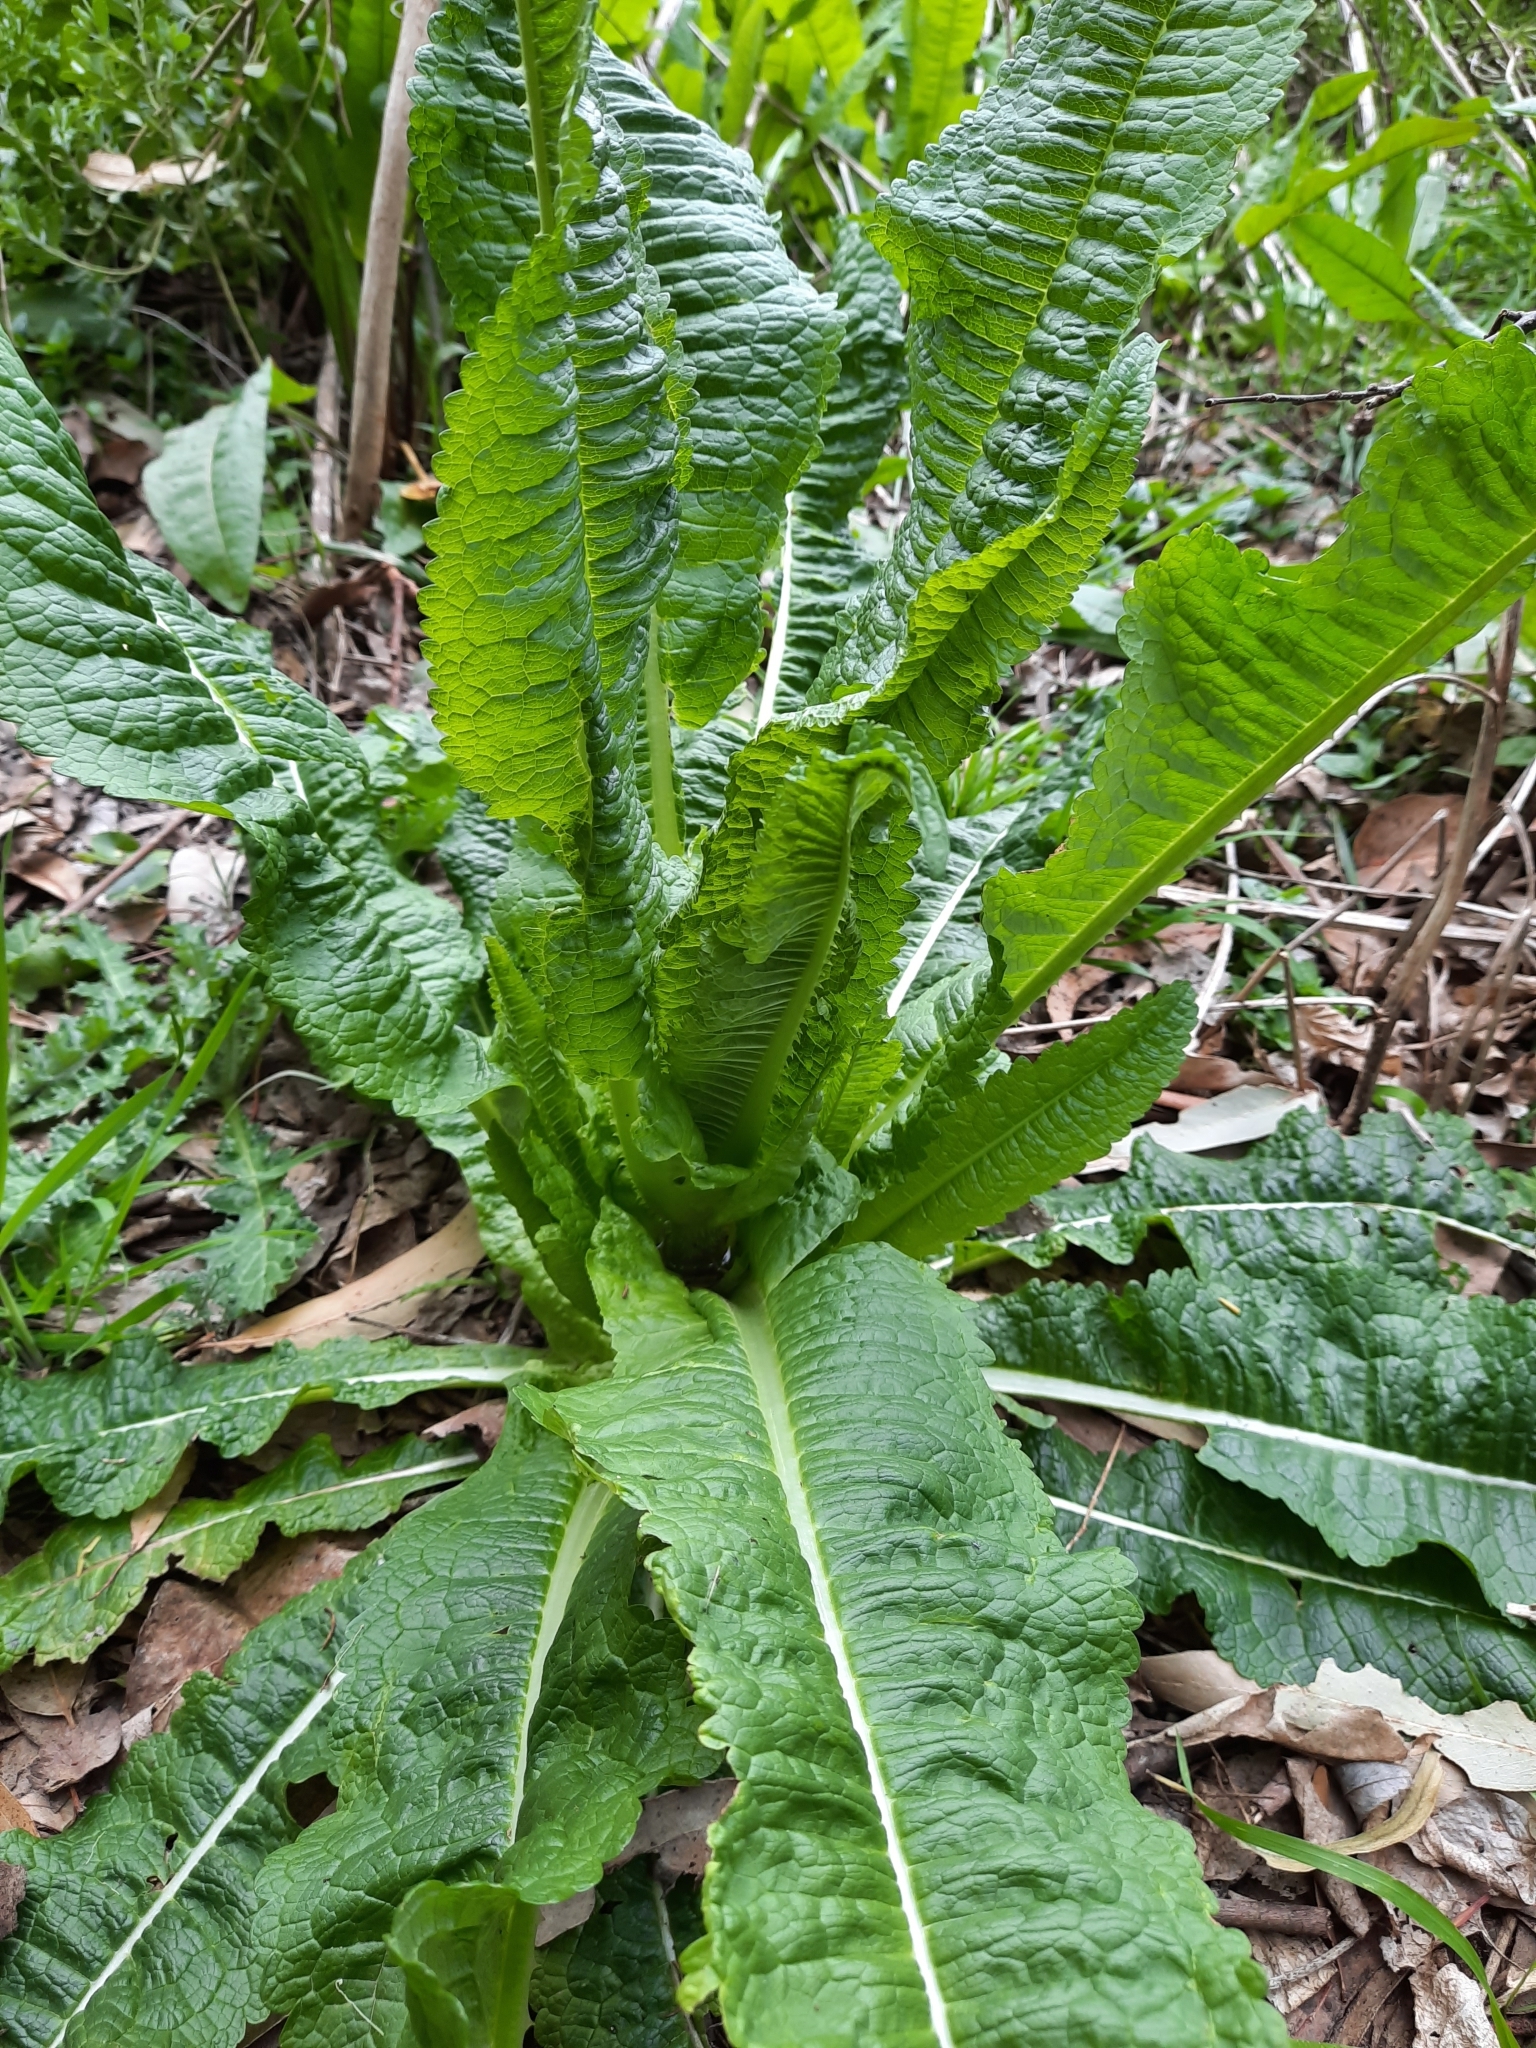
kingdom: Plantae
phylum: Tracheophyta
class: Magnoliopsida
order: Dipsacales
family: Caprifoliaceae
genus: Dipsacus
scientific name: Dipsacus fullonum
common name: Teasel
